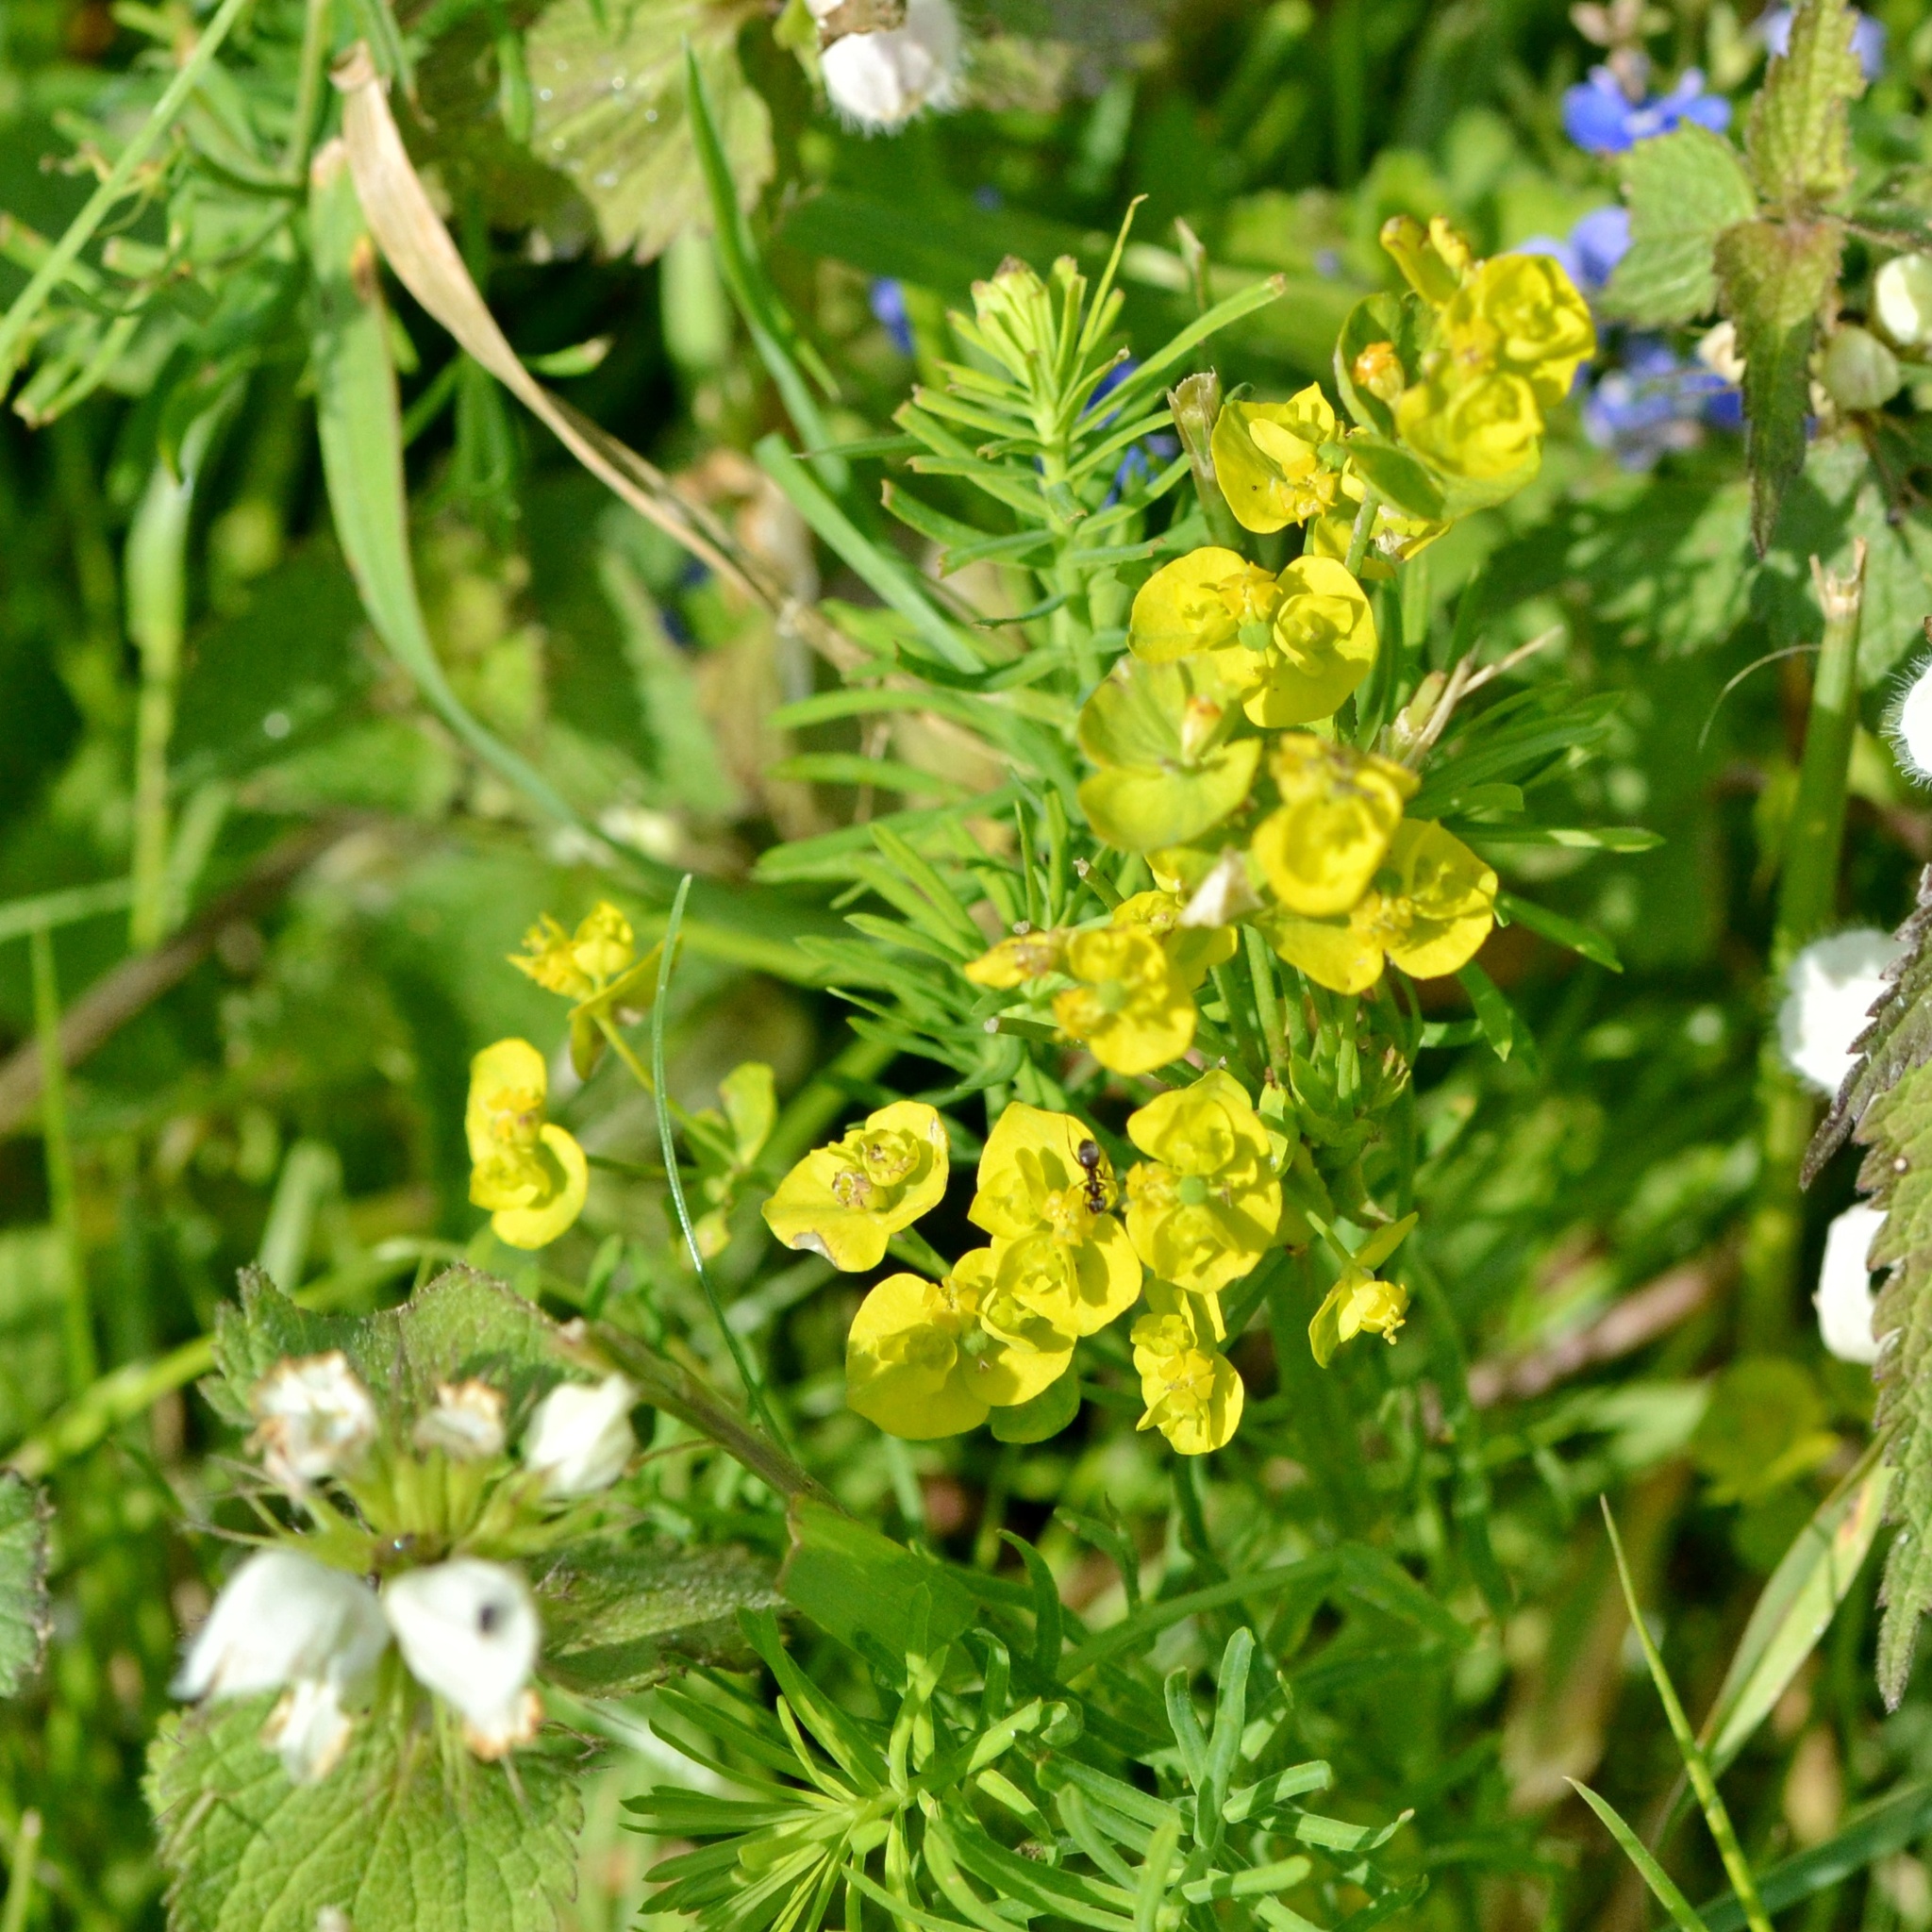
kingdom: Plantae
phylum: Tracheophyta
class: Magnoliopsida
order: Malpighiales
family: Euphorbiaceae
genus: Euphorbia
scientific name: Euphorbia cyparissias
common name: Cypress spurge
